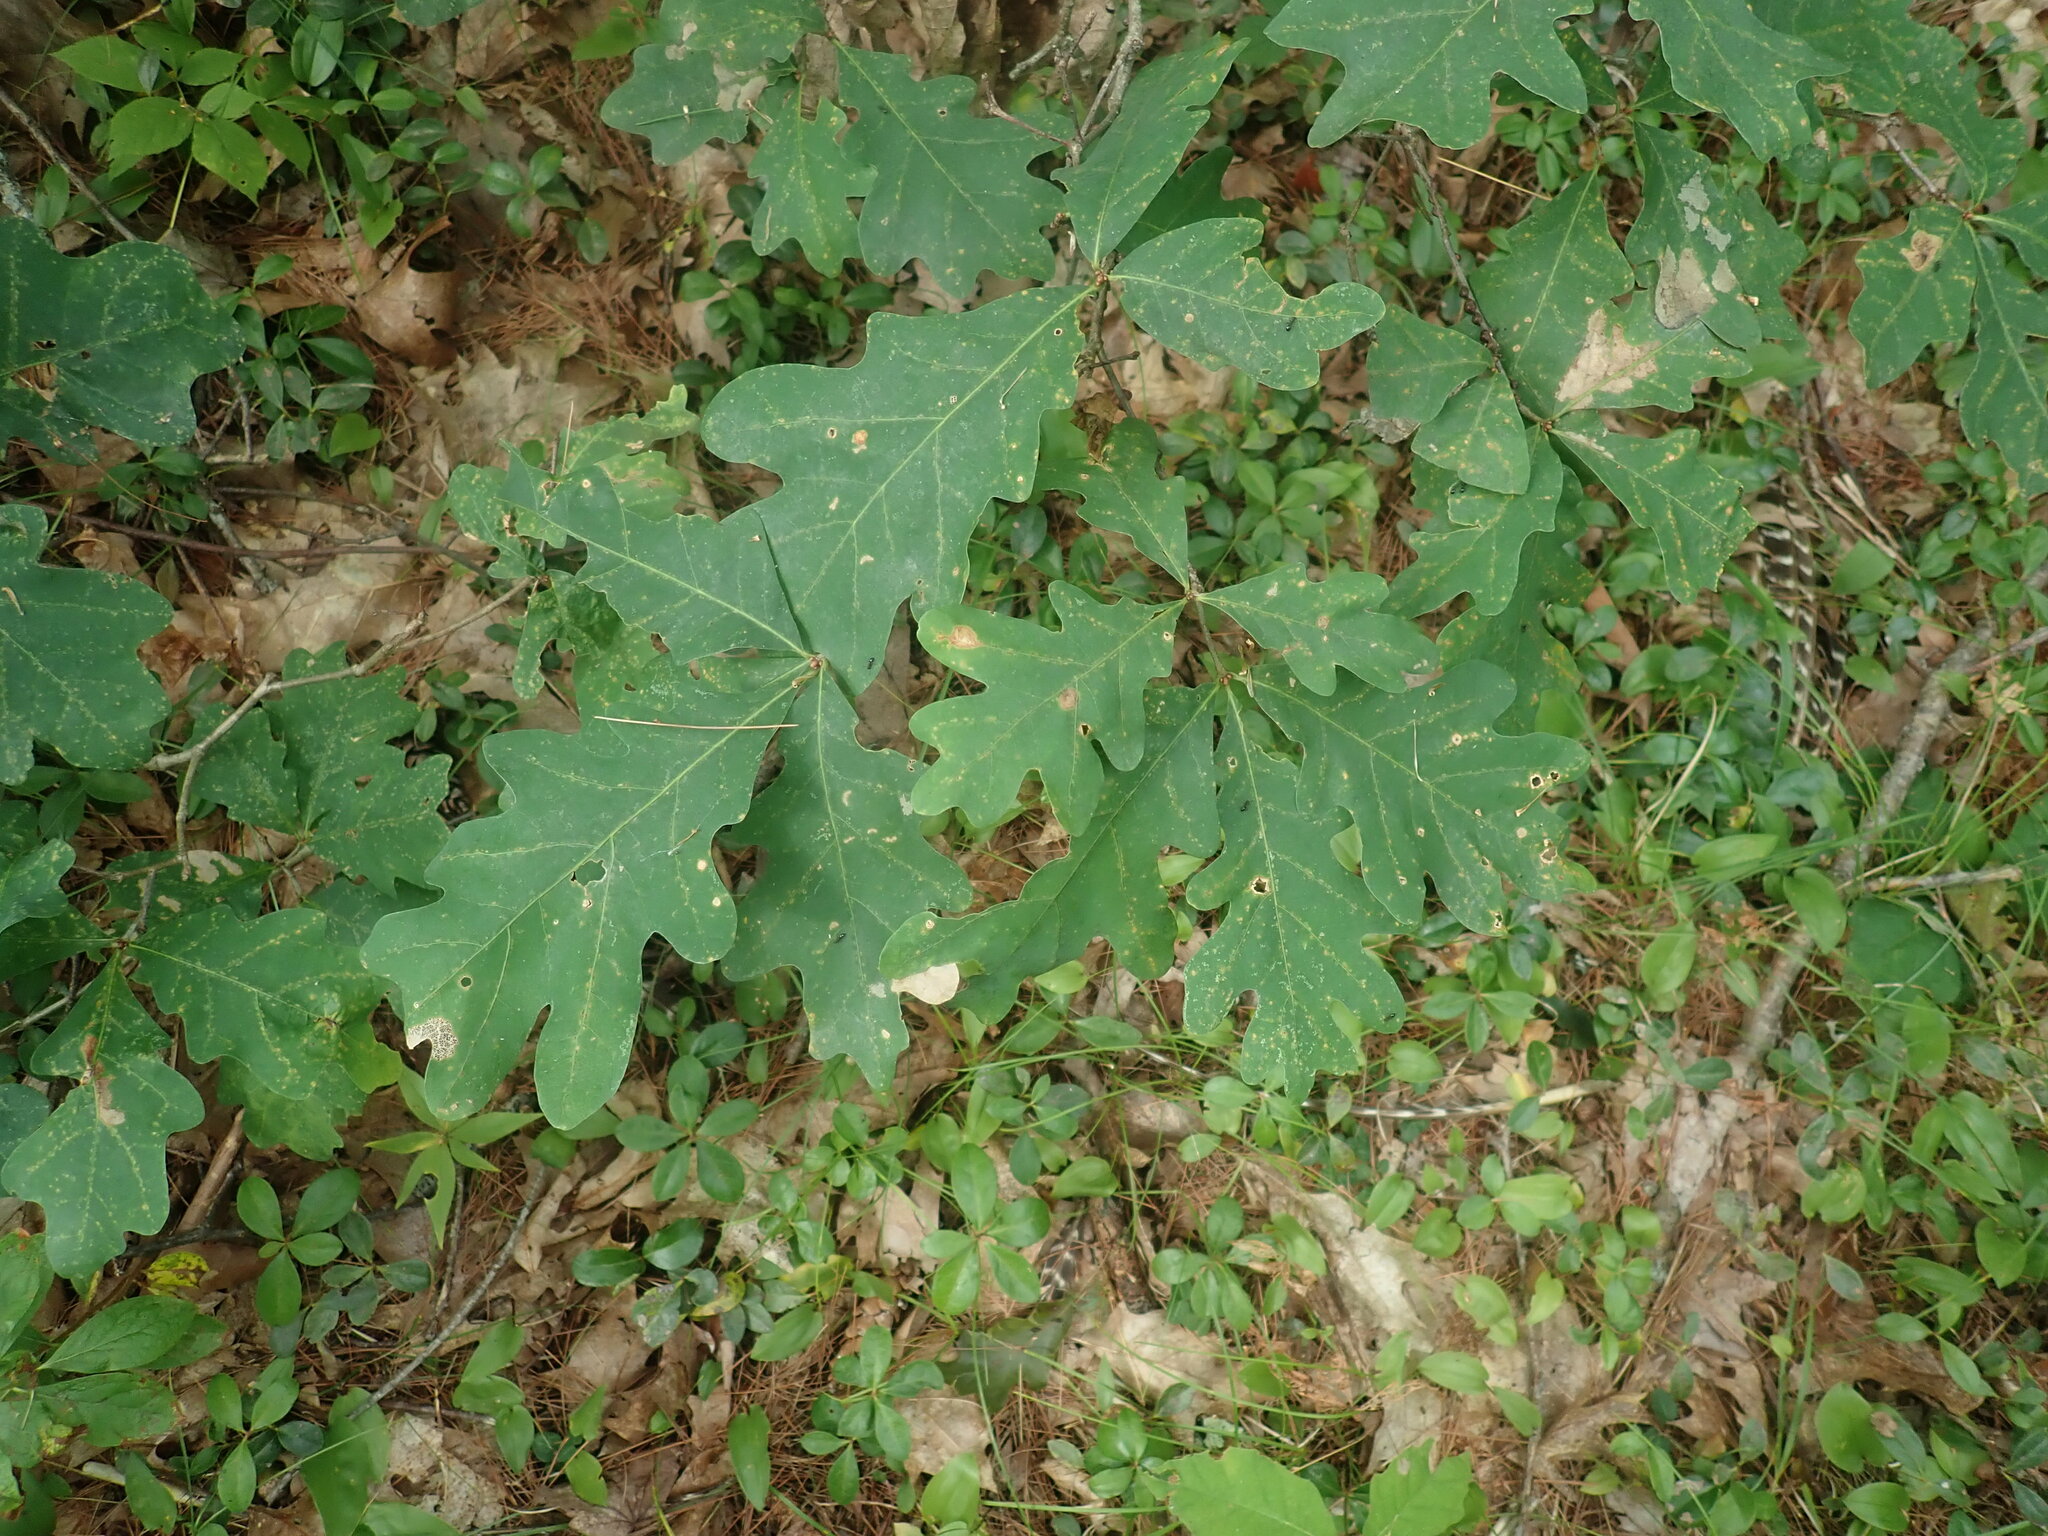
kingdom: Plantae
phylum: Tracheophyta
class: Magnoliopsida
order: Fagales
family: Fagaceae
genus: Quercus
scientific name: Quercus alba
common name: White oak
